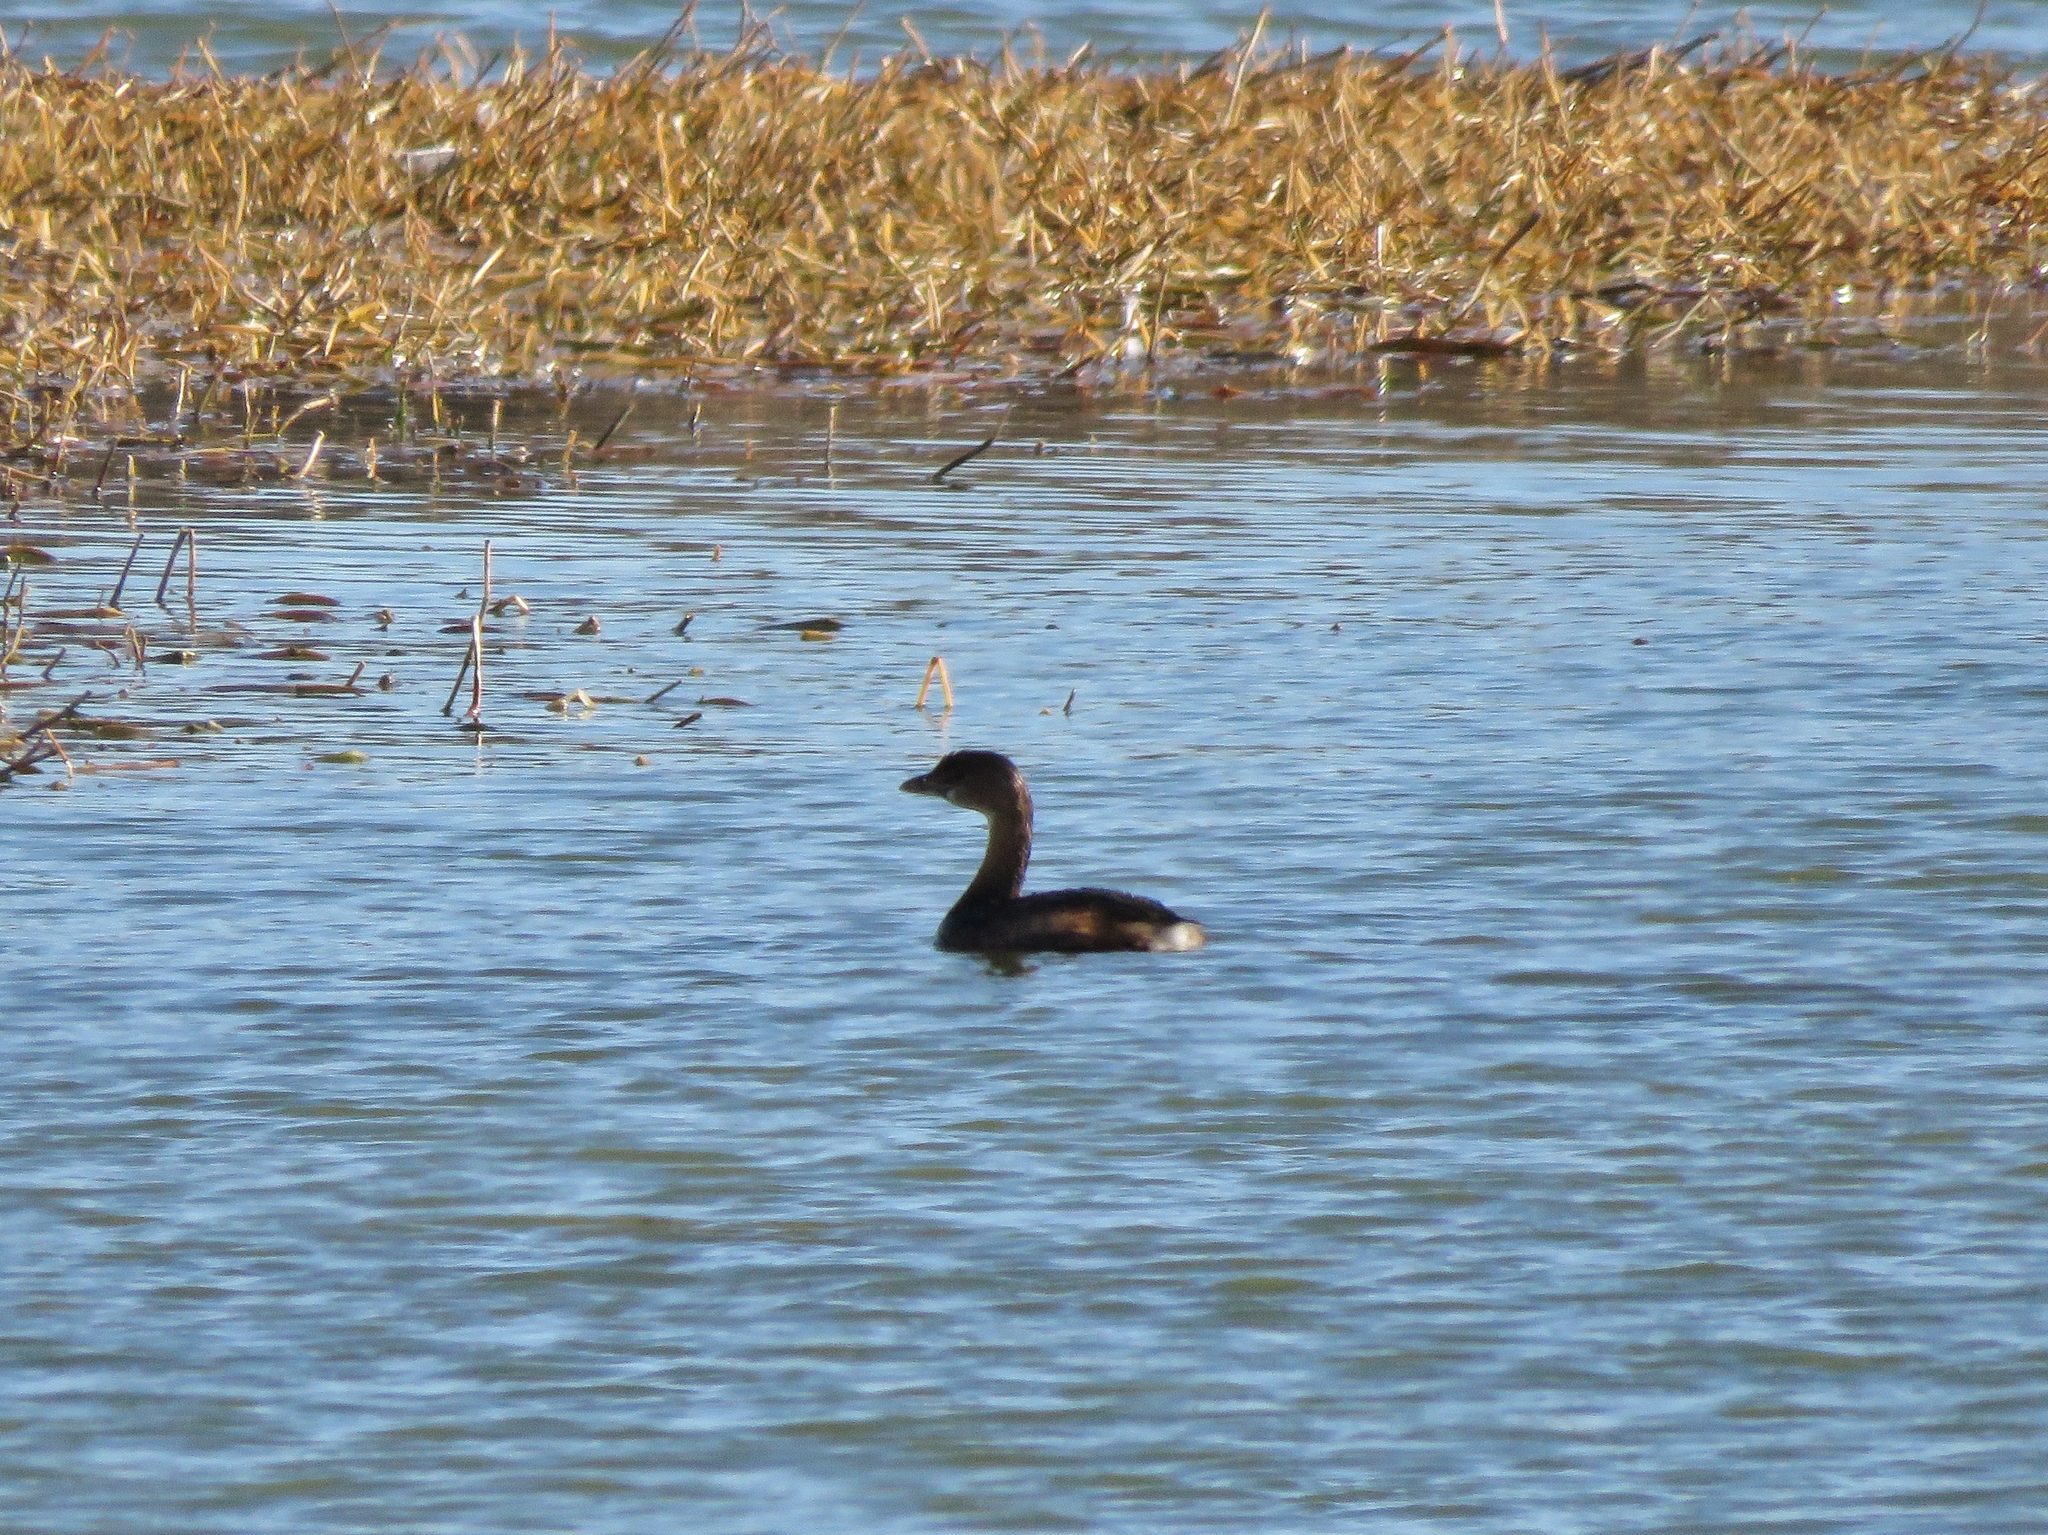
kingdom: Animalia
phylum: Chordata
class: Aves
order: Podicipediformes
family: Podicipedidae
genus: Podilymbus
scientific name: Podilymbus podiceps
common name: Pied-billed grebe
